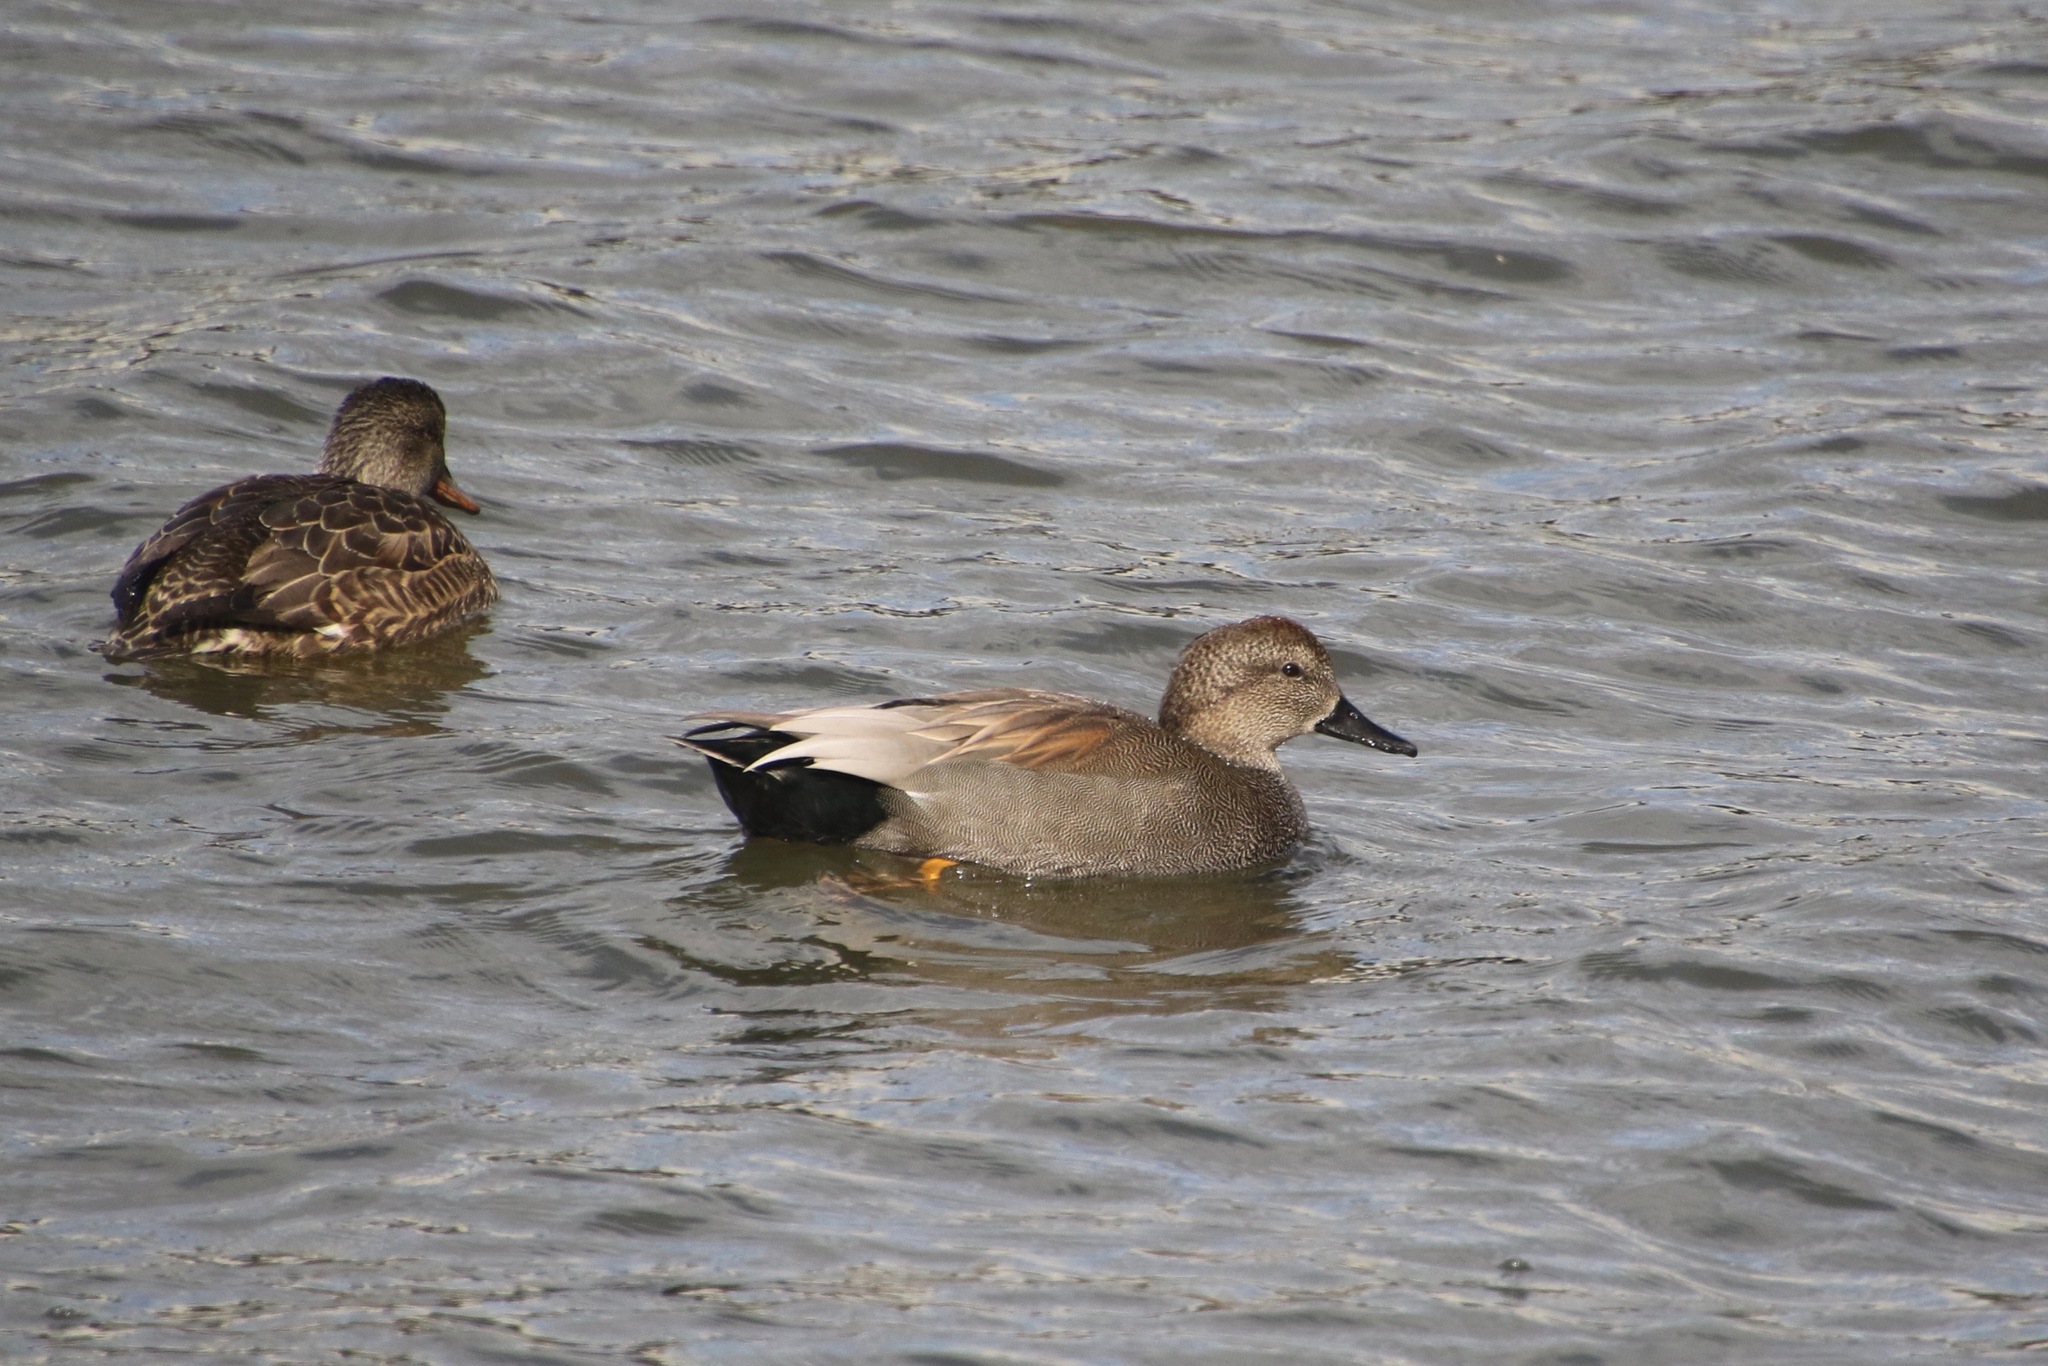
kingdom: Animalia
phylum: Chordata
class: Aves
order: Anseriformes
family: Anatidae
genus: Mareca
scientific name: Mareca strepera
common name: Gadwall
